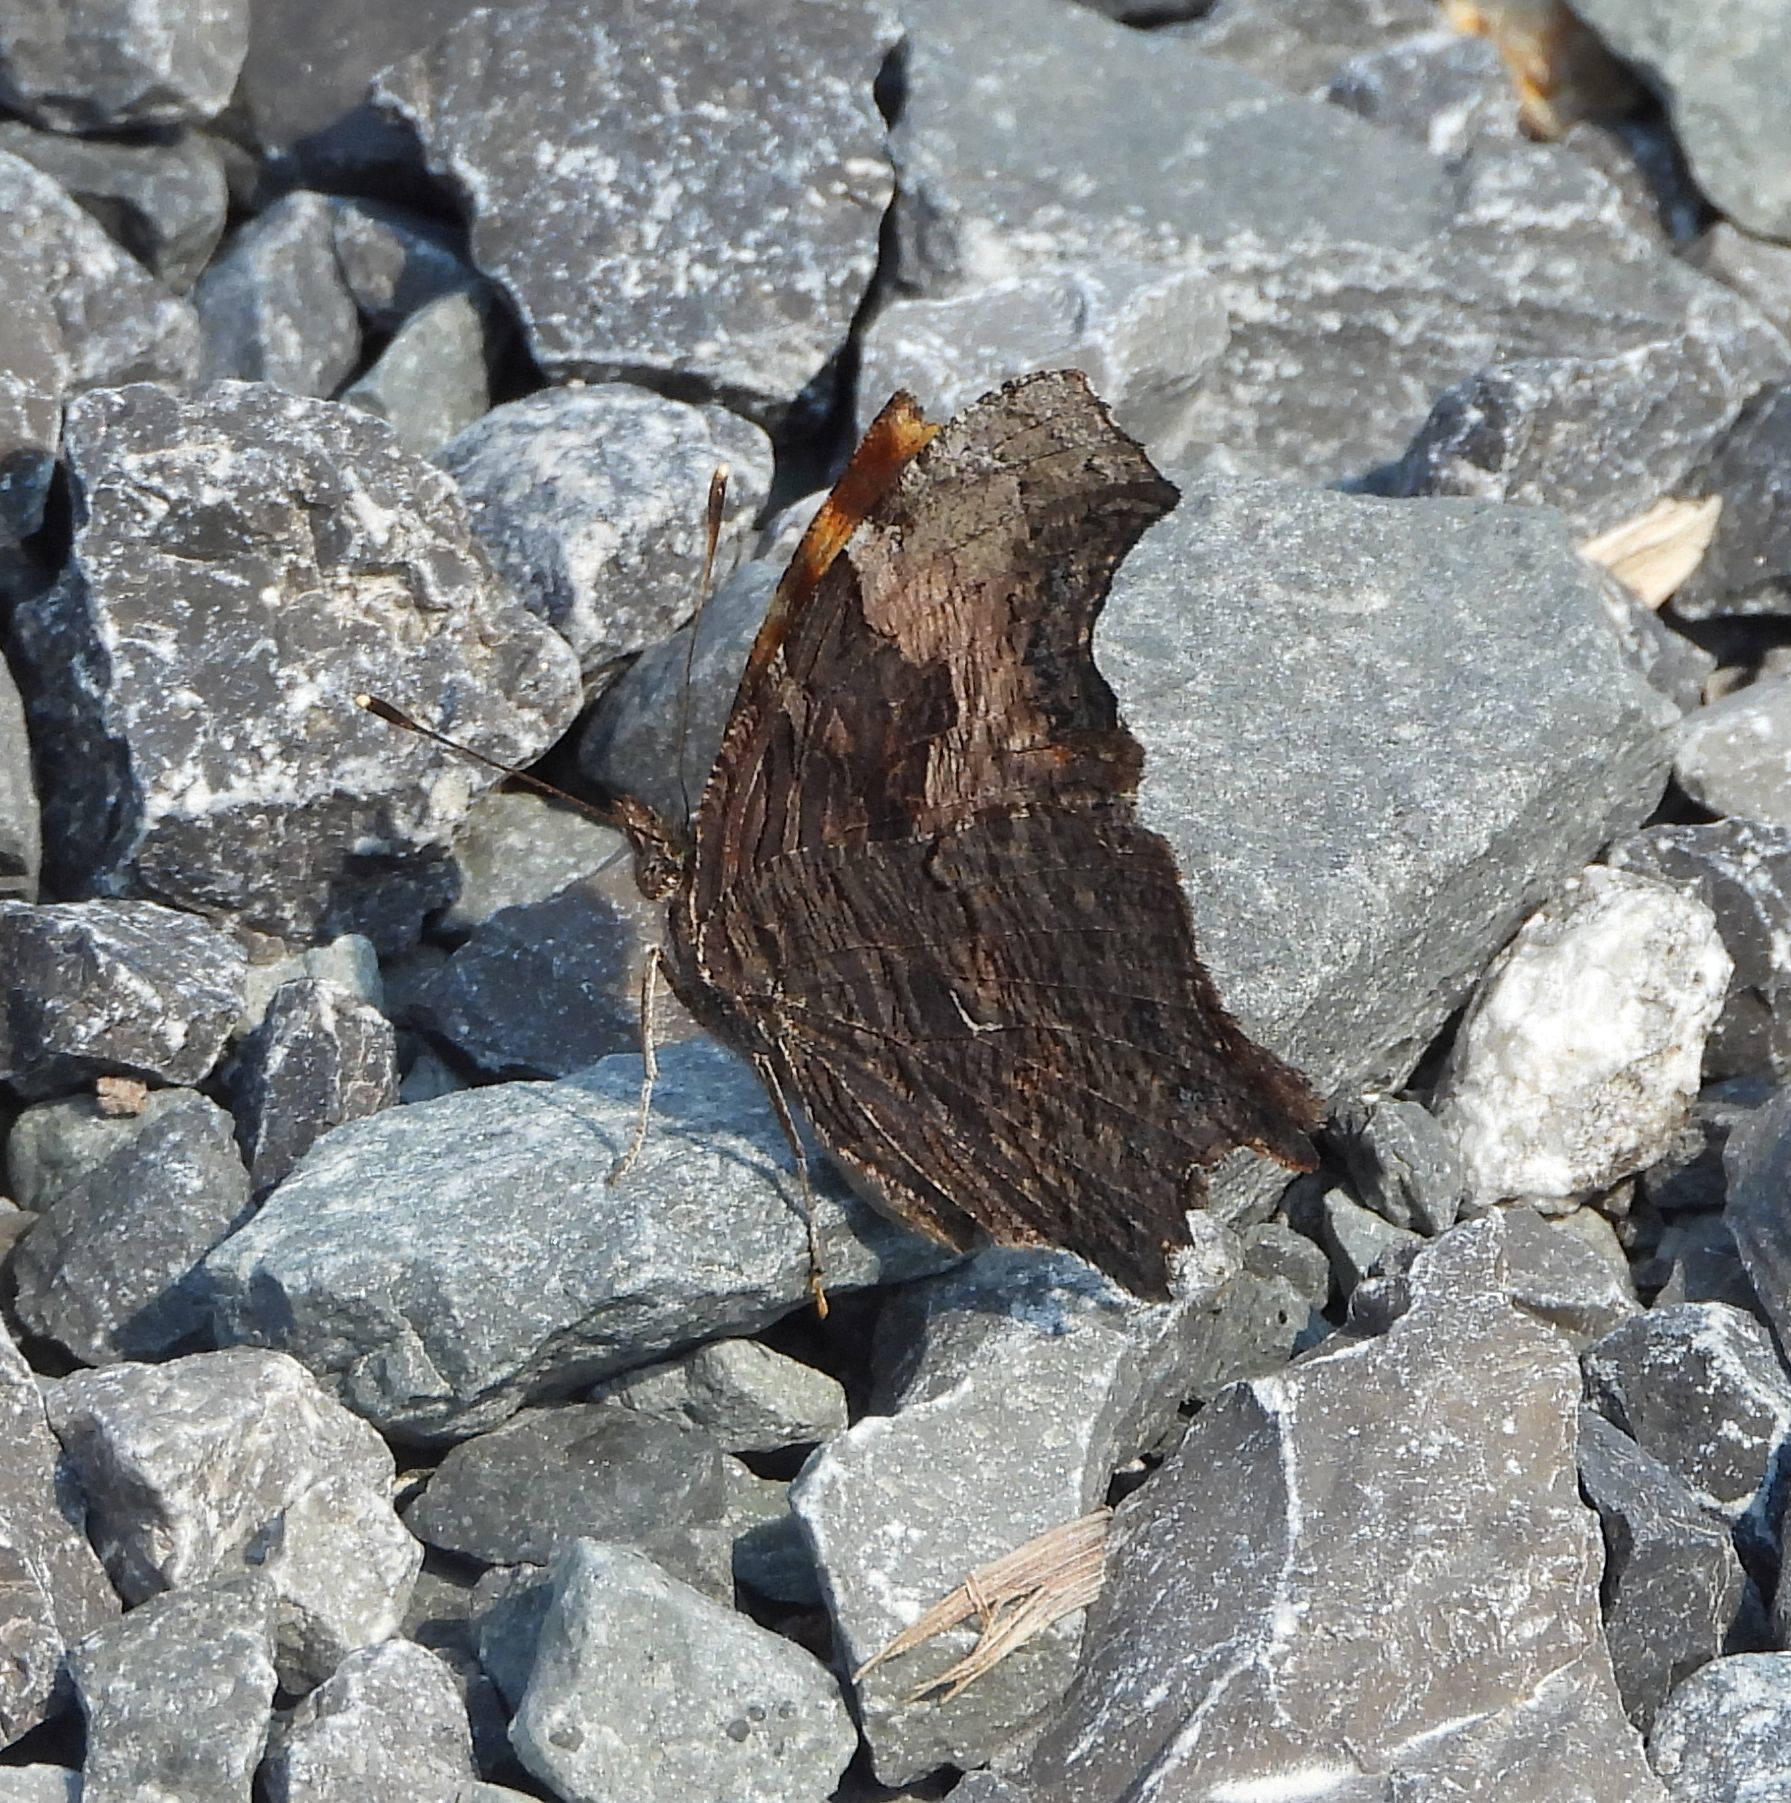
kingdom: Animalia
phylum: Arthropoda
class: Insecta
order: Lepidoptera
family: Nymphalidae
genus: Polygonia
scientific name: Polygonia progne
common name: Gray comma
